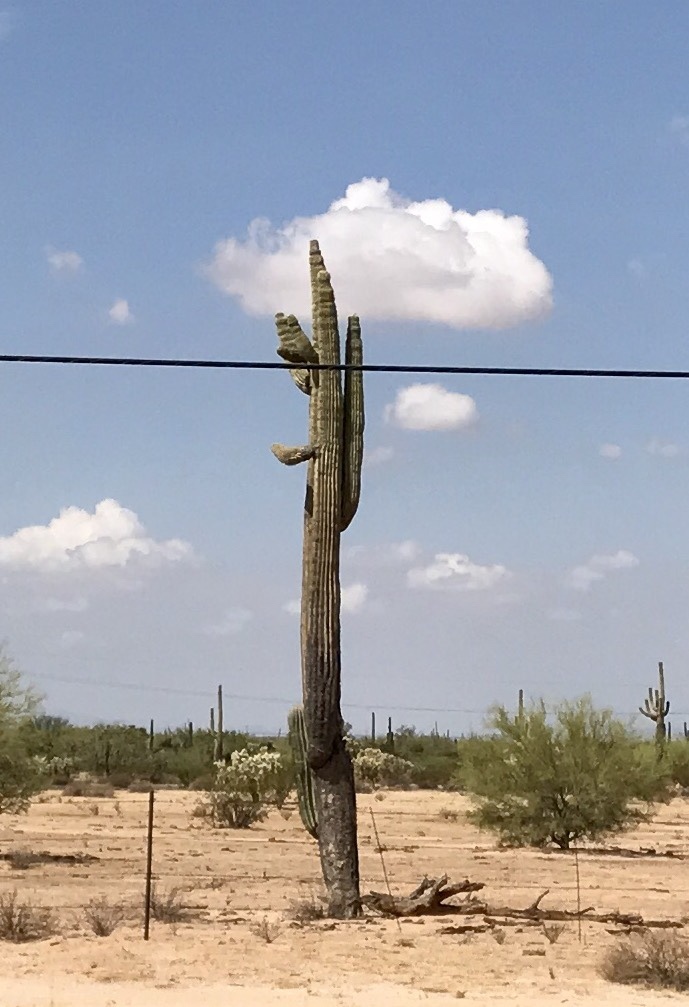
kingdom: Plantae
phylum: Tracheophyta
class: Magnoliopsida
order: Caryophyllales
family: Cactaceae
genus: Carnegiea
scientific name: Carnegiea gigantea
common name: Saguaro
